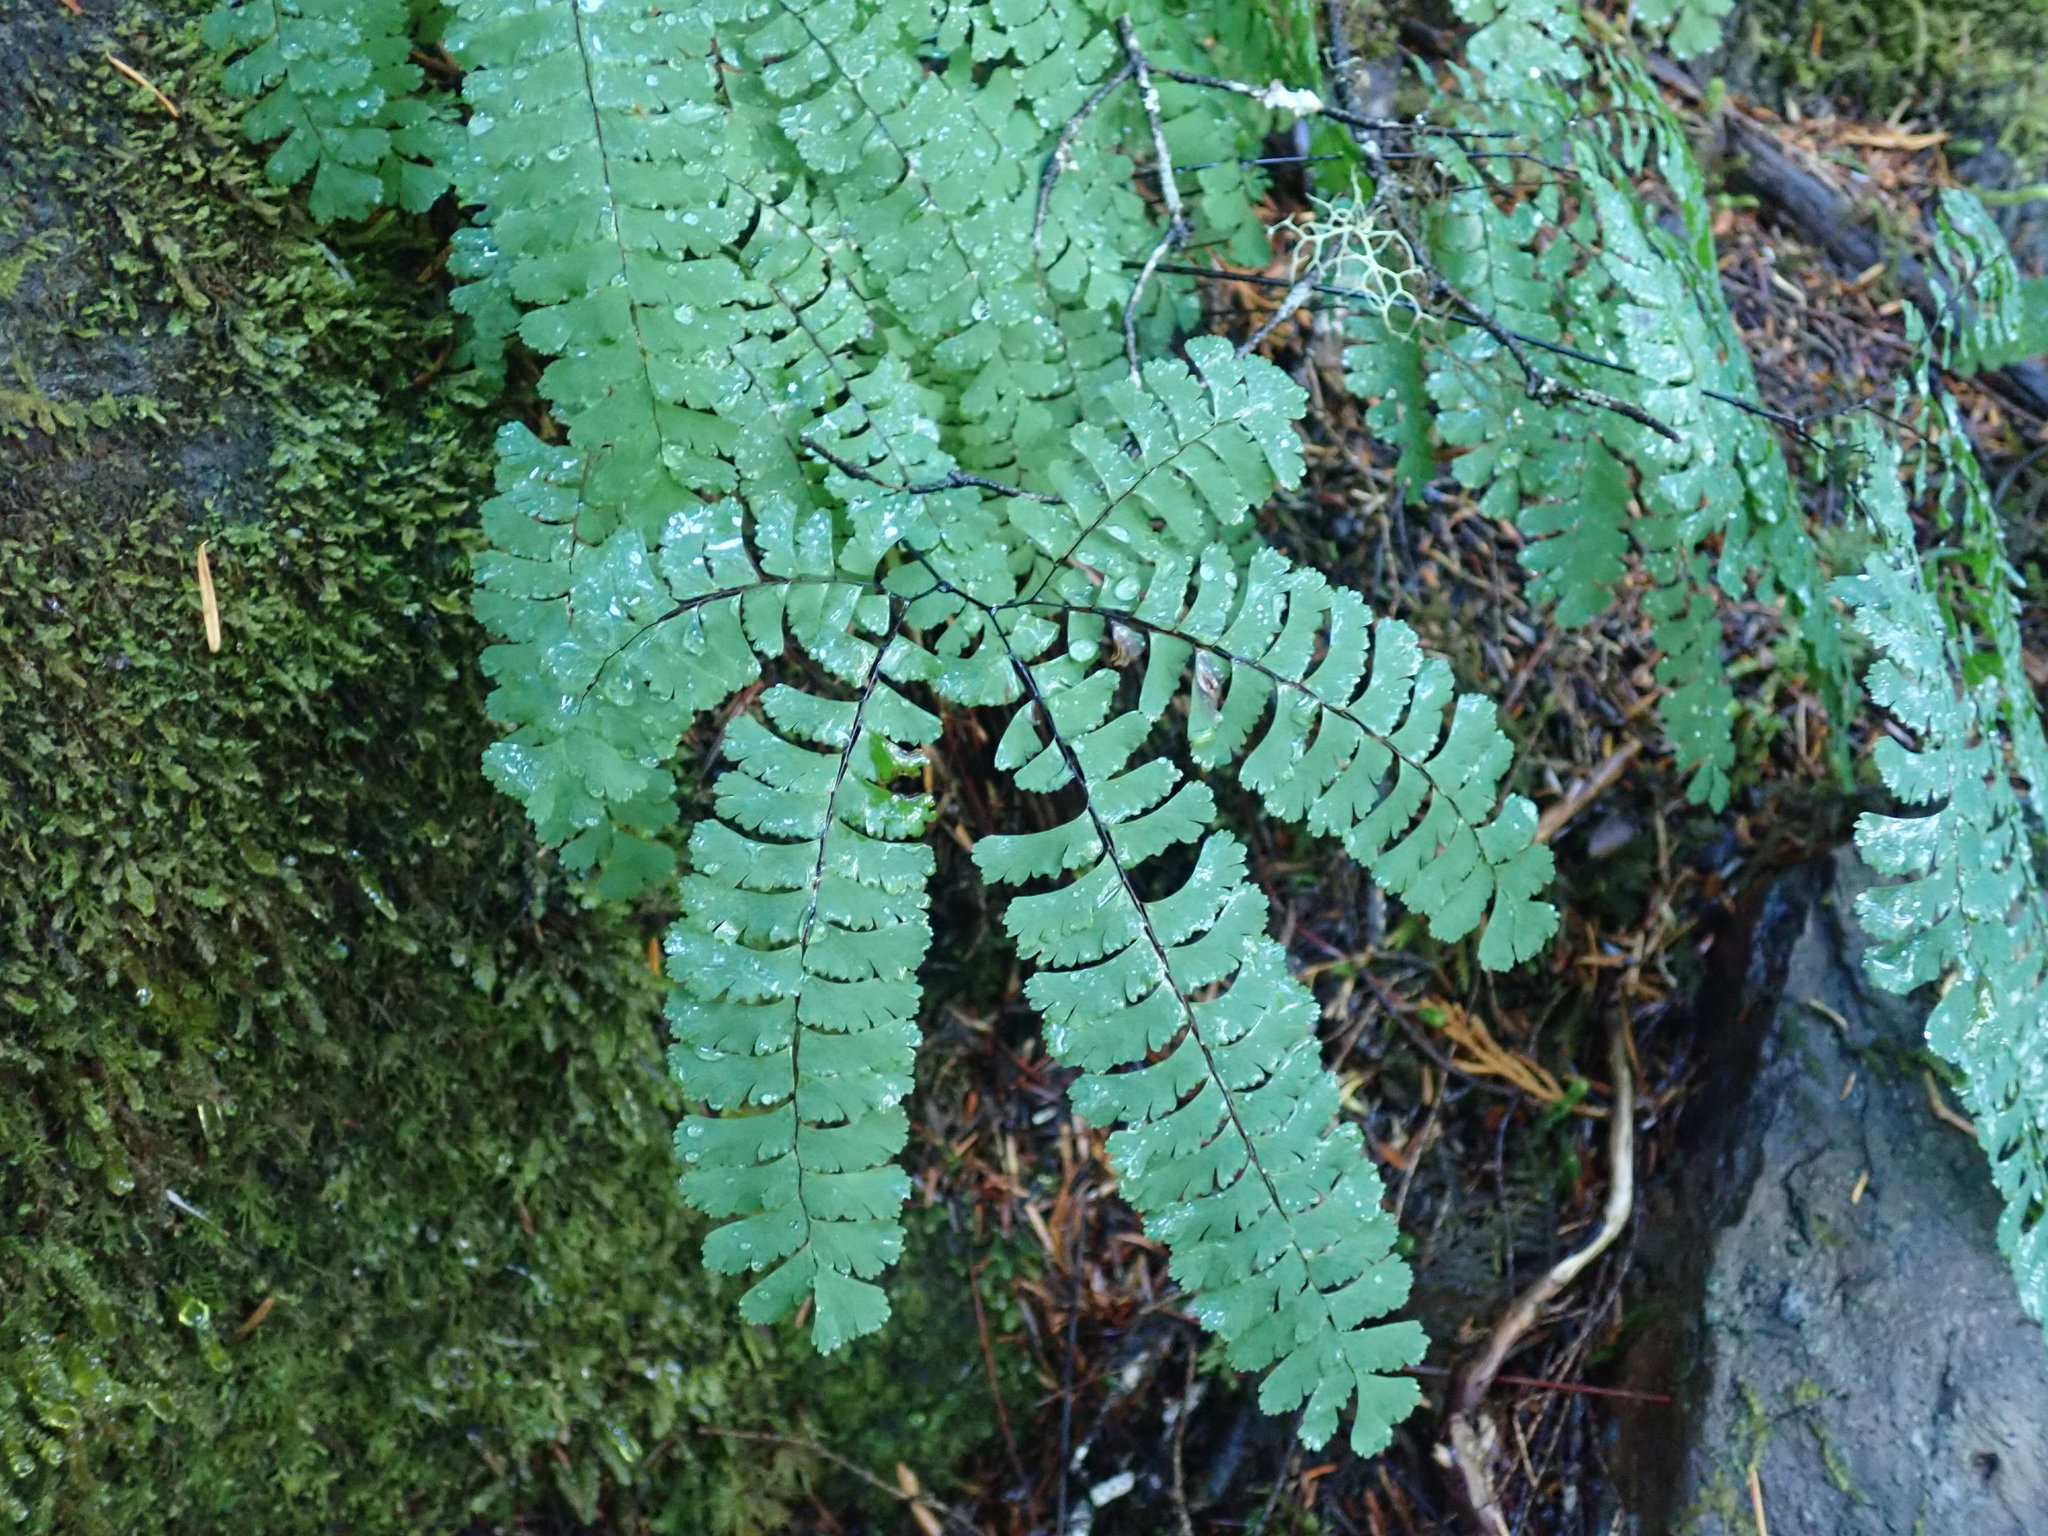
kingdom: Plantae
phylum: Tracheophyta
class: Polypodiopsida
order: Polypodiales
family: Pteridaceae
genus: Adiantum
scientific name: Adiantum aleuticum
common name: Aleutian maidenhair fern
